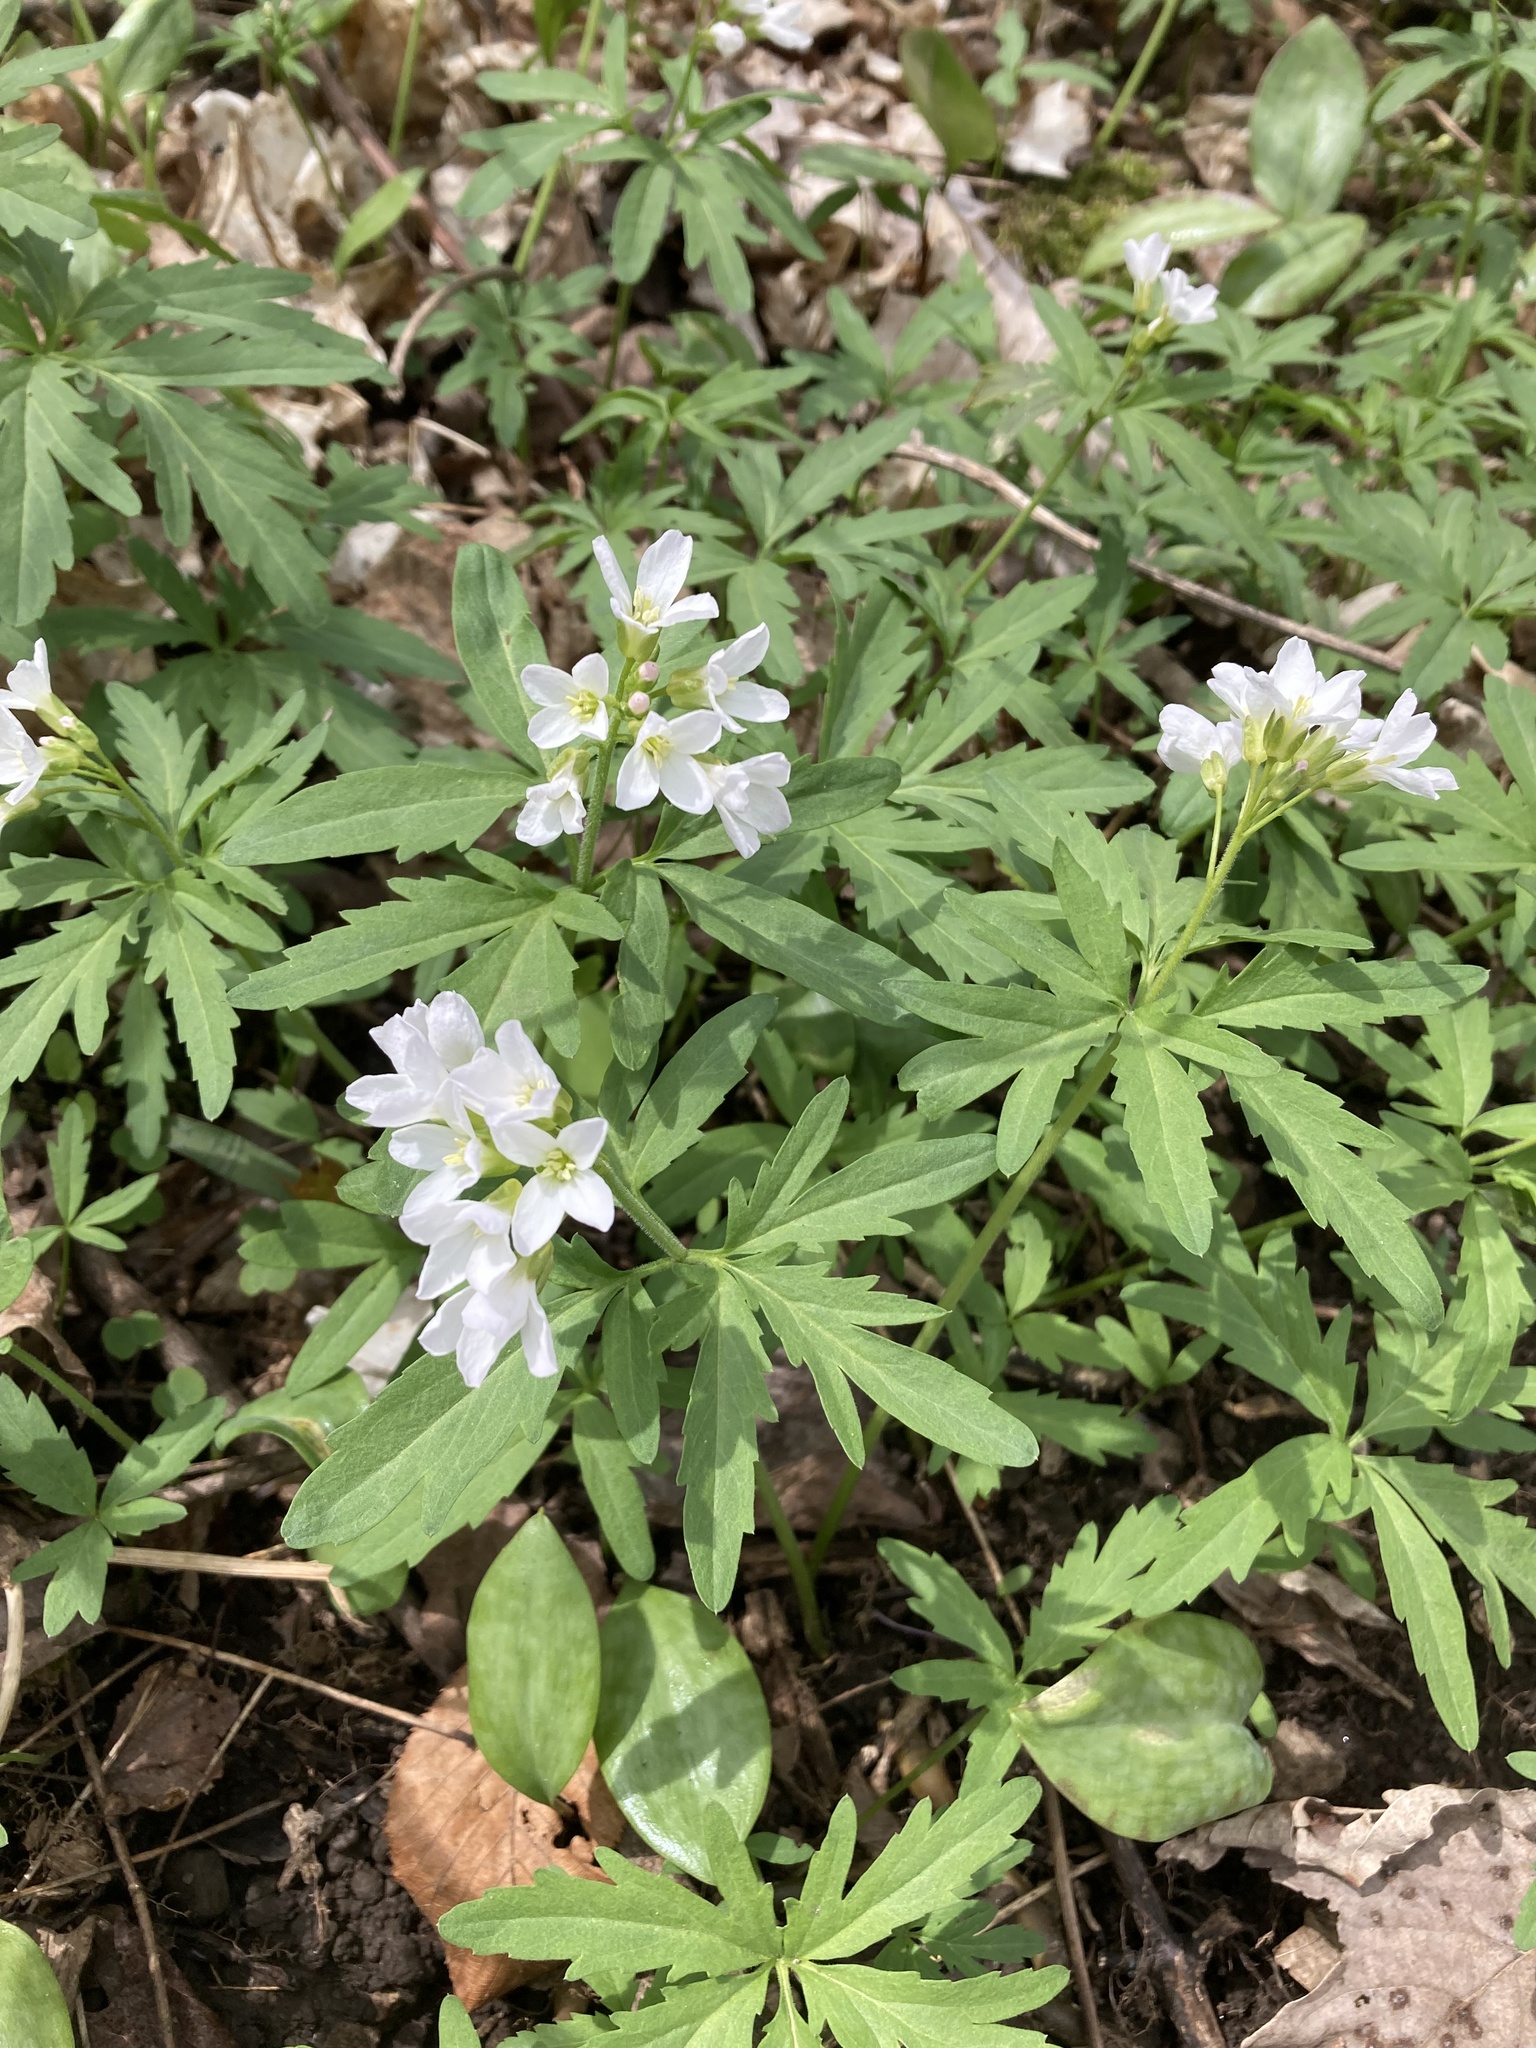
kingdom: Plantae
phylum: Tracheophyta
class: Magnoliopsida
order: Brassicales
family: Brassicaceae
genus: Cardamine
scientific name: Cardamine concatenata
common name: Cut-leaf toothcup
